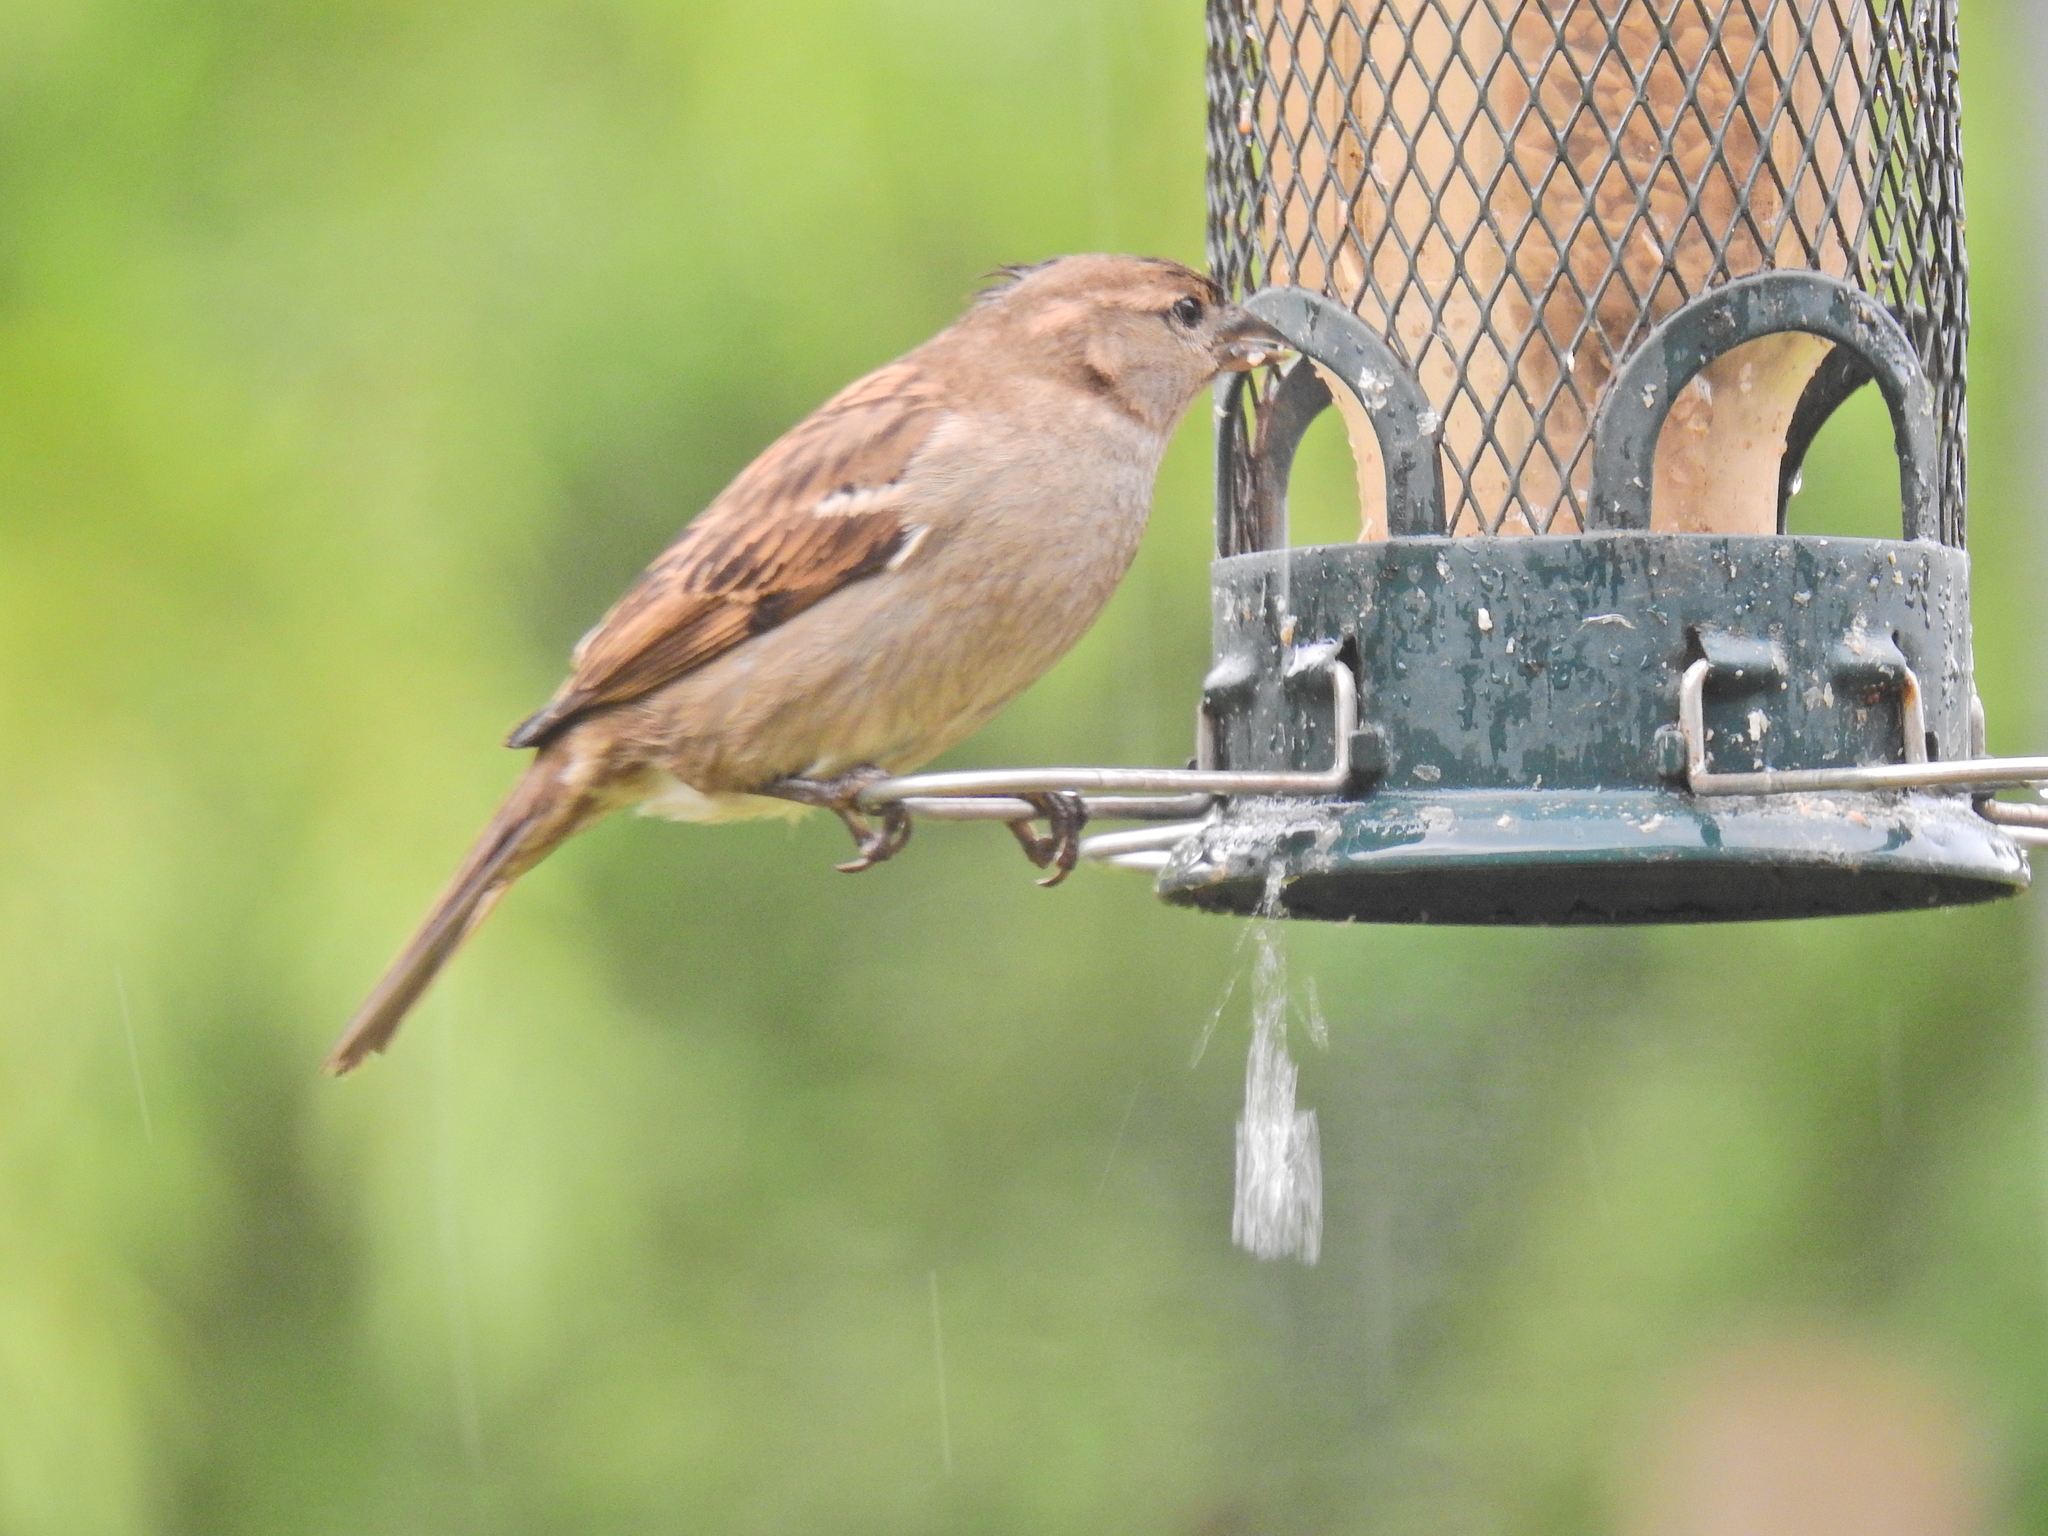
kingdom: Animalia
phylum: Chordata
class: Aves
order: Passeriformes
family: Passeridae
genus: Passer
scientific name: Passer domesticus
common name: House sparrow
